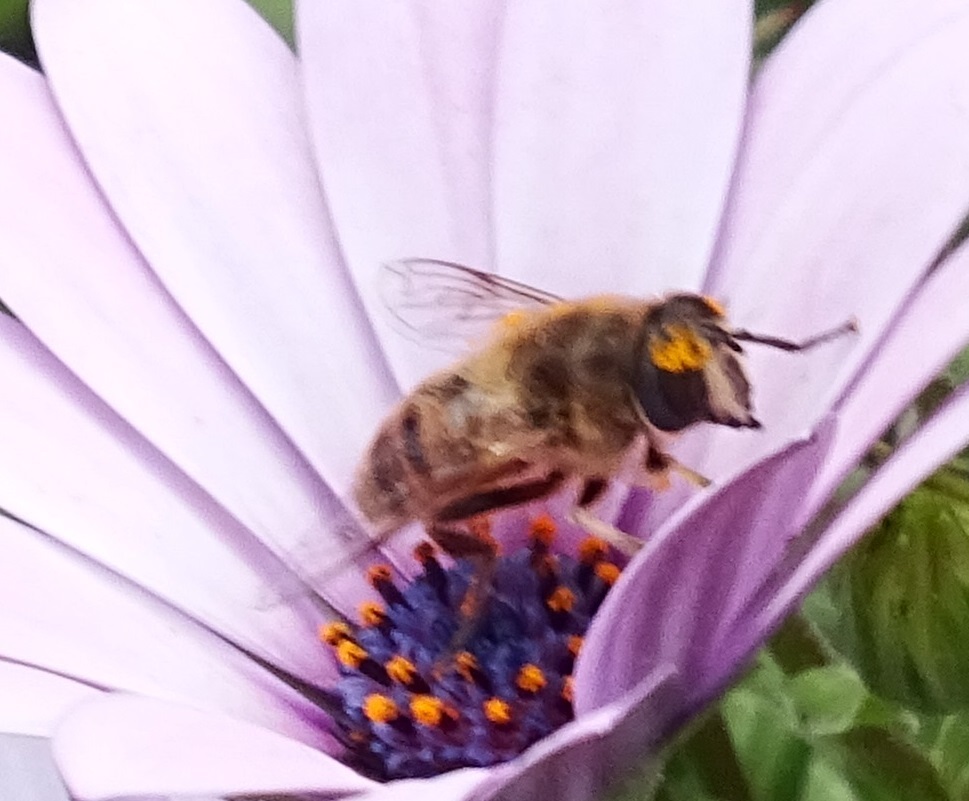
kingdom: Animalia
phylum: Arthropoda
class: Insecta
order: Diptera
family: Syrphidae
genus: Eristalis
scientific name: Eristalis tenax
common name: Drone fly
